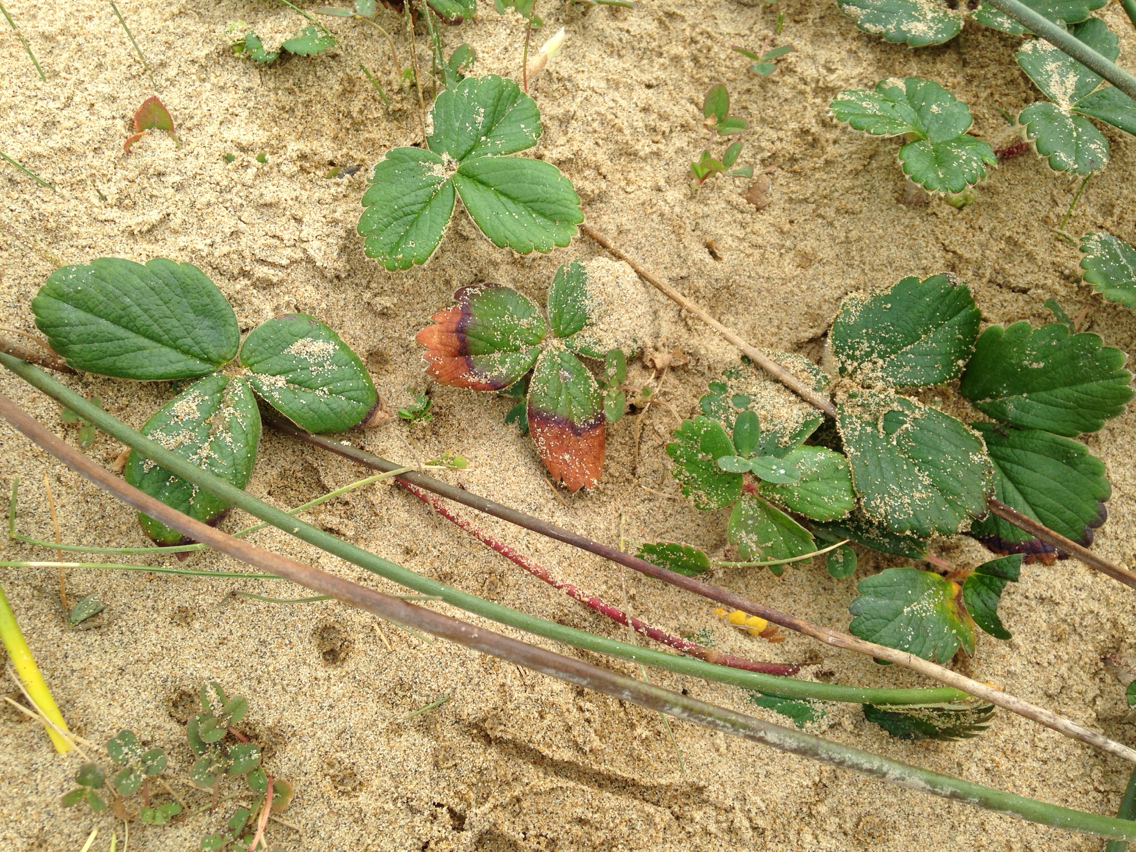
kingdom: Plantae
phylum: Tracheophyta
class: Magnoliopsida
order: Rosales
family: Rosaceae
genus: Fragaria
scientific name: Fragaria chiloensis
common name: Beach strawberry
